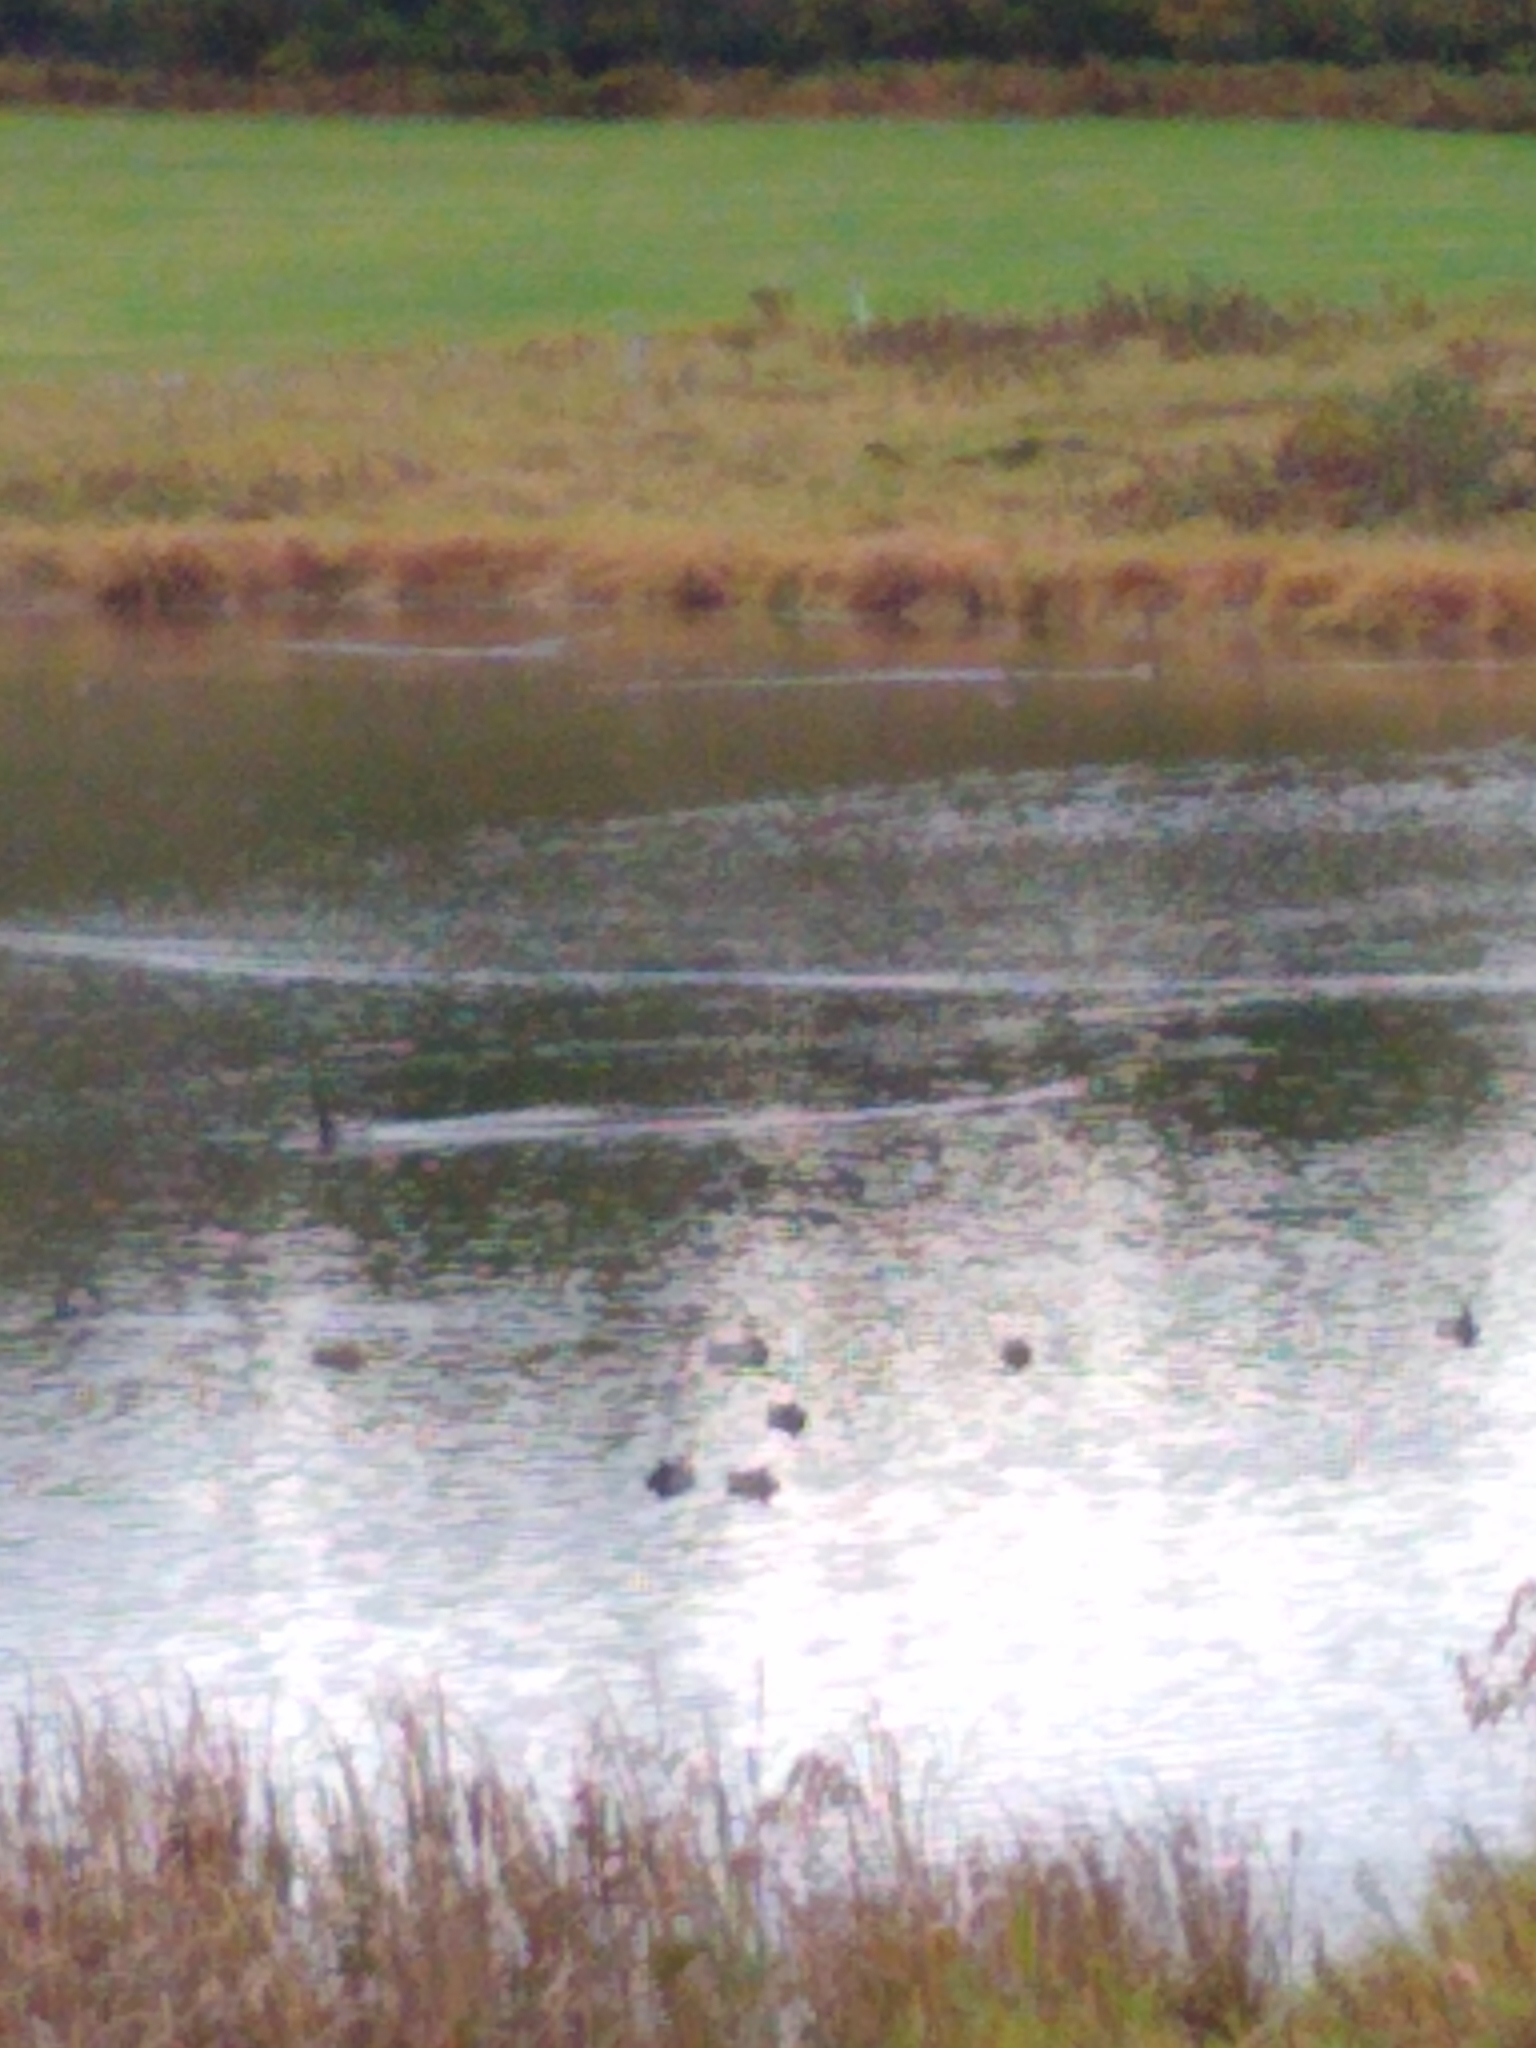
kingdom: Animalia
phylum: Chordata
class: Aves
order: Anseriformes
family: Anatidae
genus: Anas
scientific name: Anas platyrhynchos
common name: Mallard
